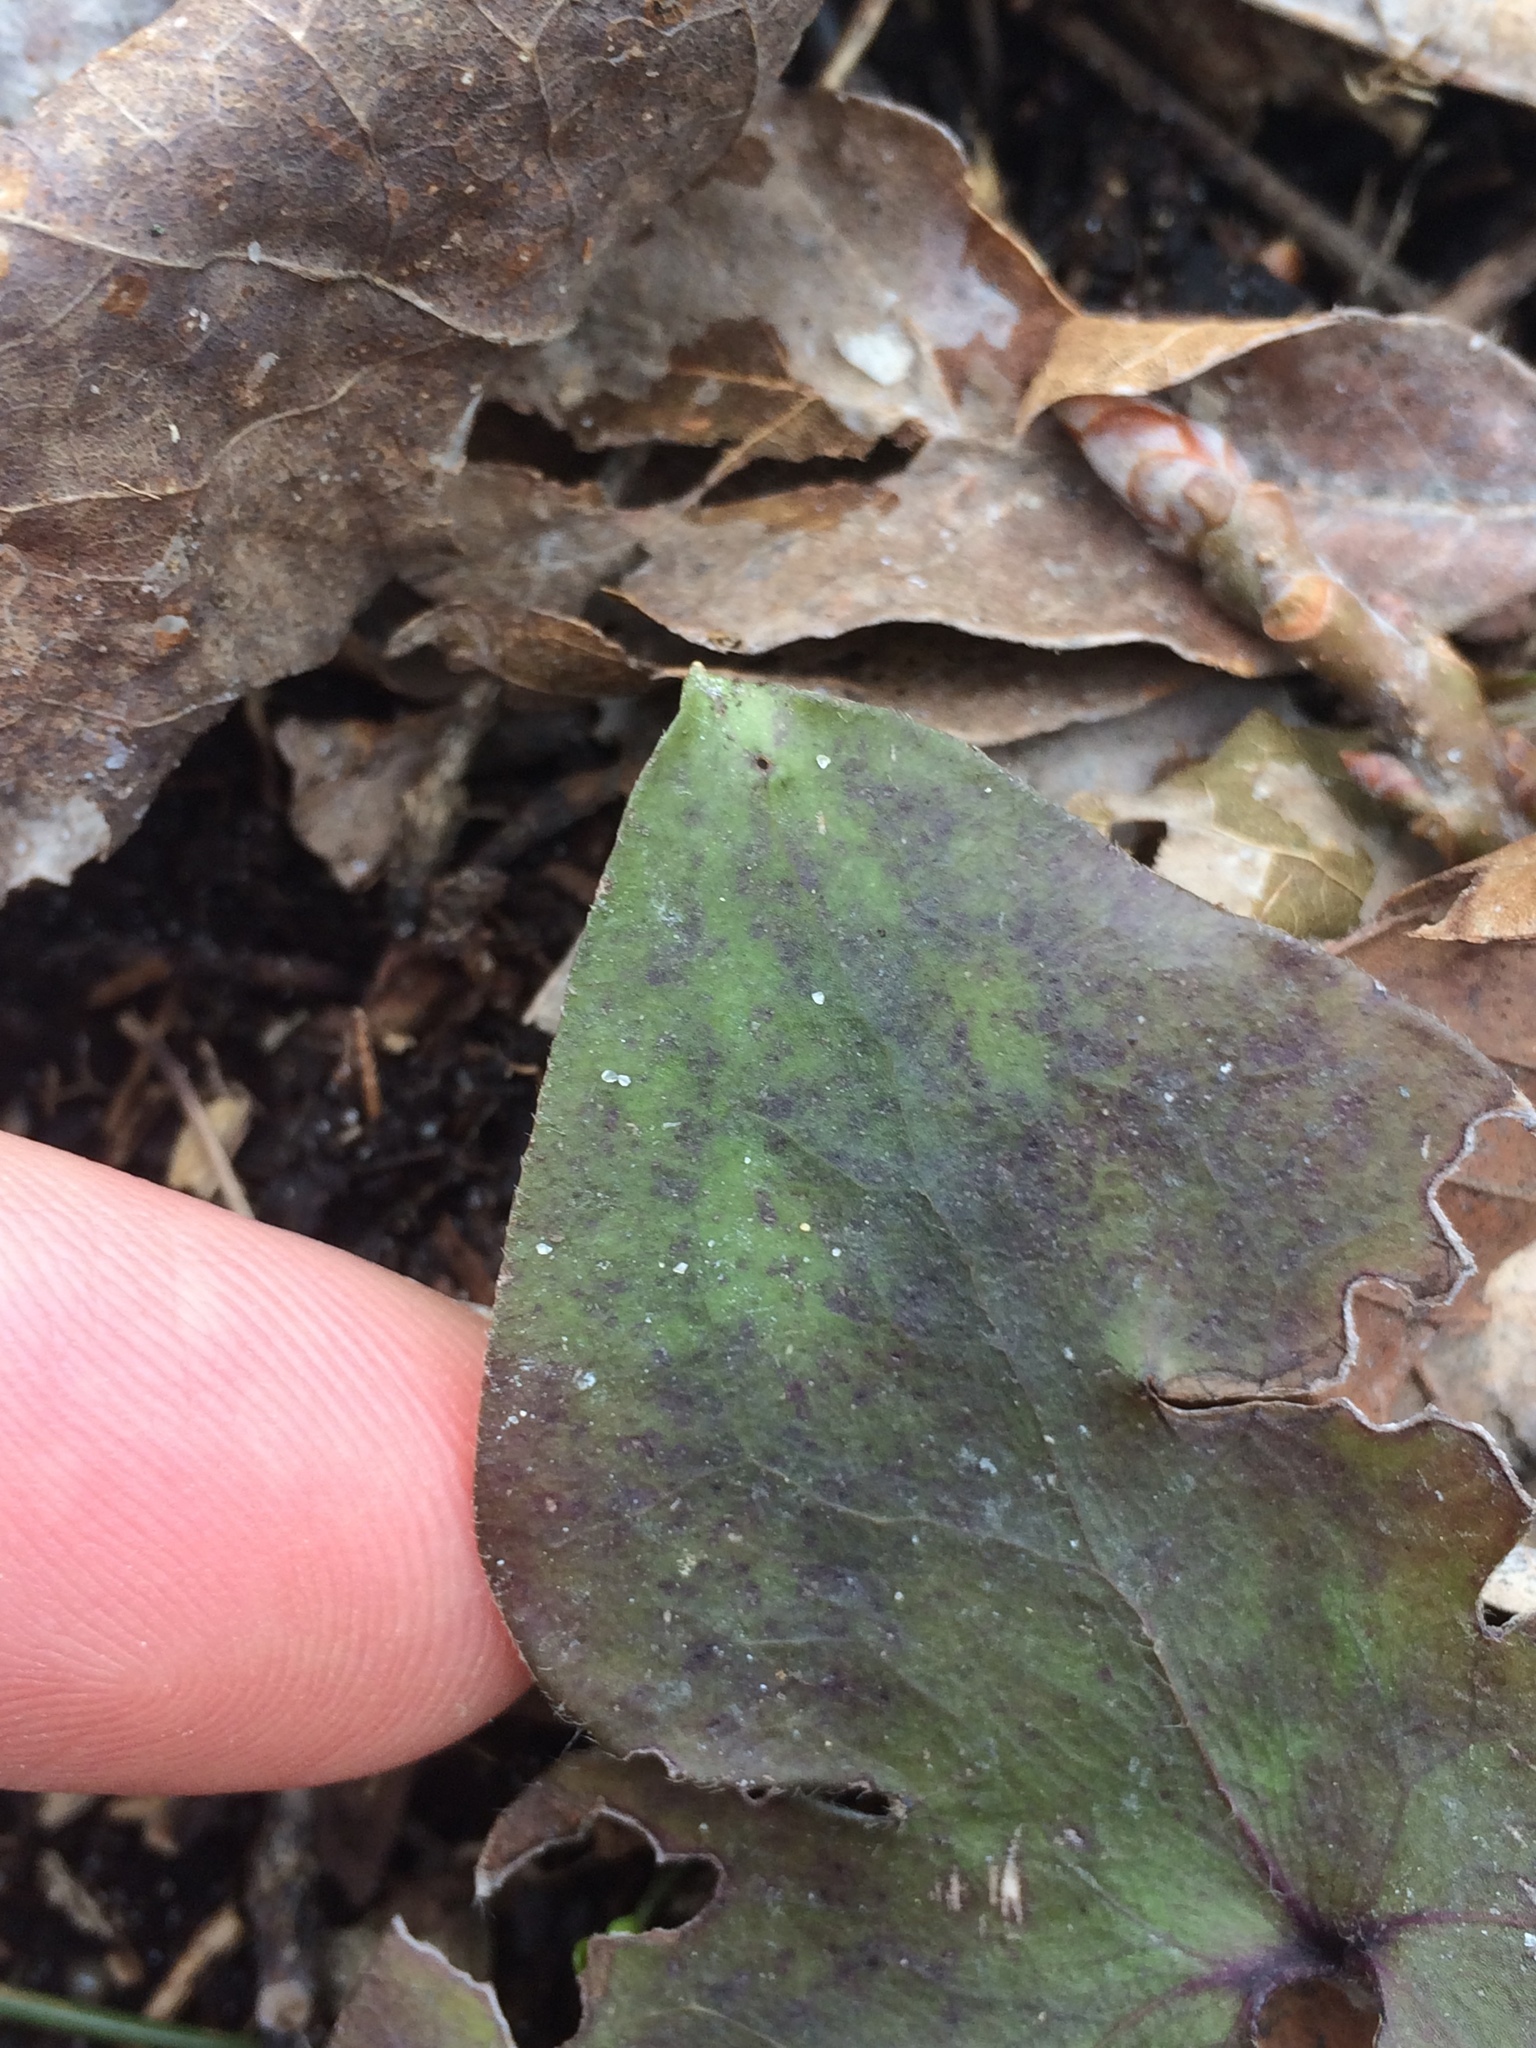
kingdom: Plantae
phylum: Tracheophyta
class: Magnoliopsida
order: Ranunculales
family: Ranunculaceae
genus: Hepatica
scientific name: Hepatica acutiloba
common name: Sharp-lobed hepatica
